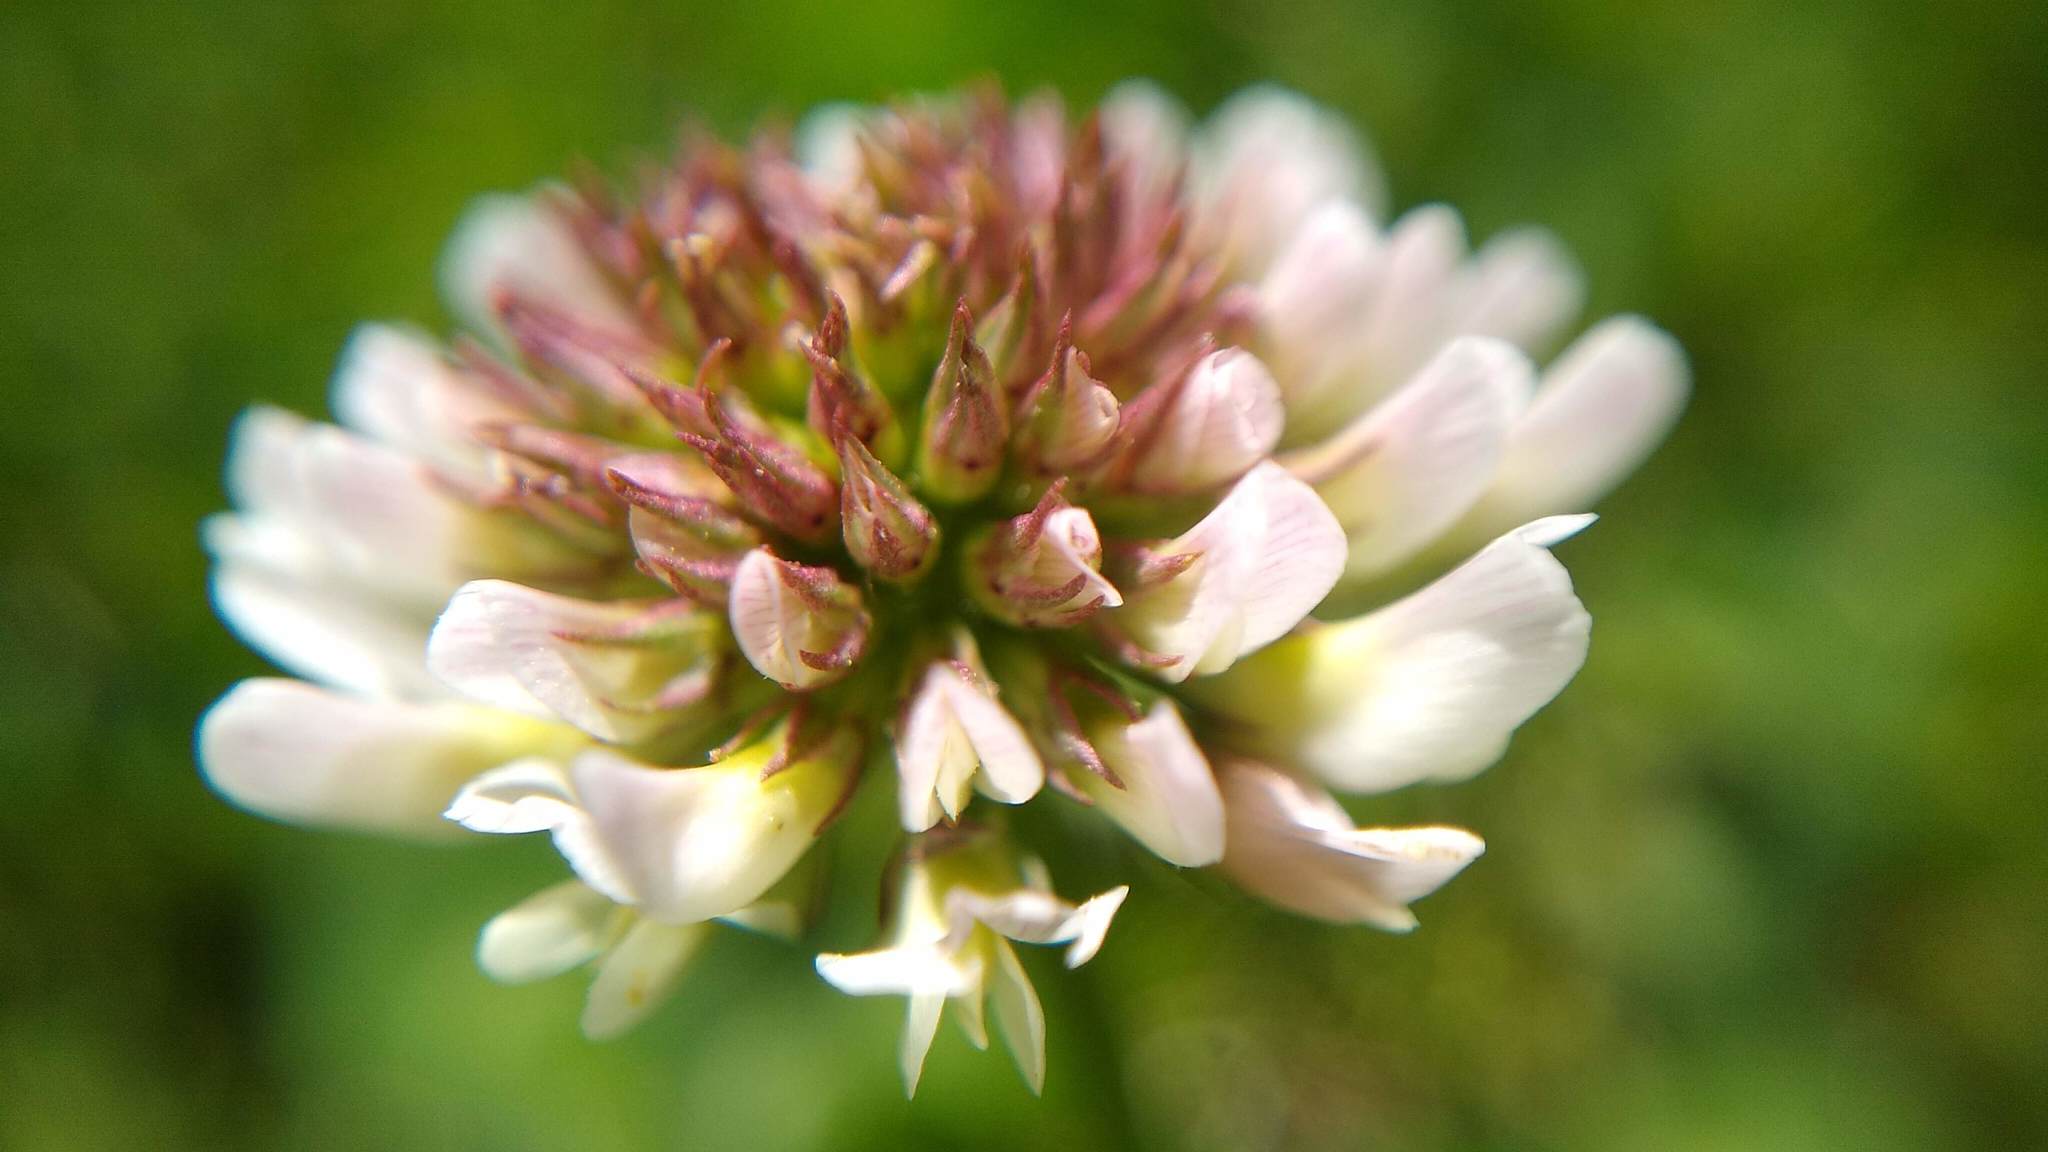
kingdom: Plantae
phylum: Tracheophyta
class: Magnoliopsida
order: Fabales
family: Fabaceae
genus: Trifolium
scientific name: Trifolium repens
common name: White clover
